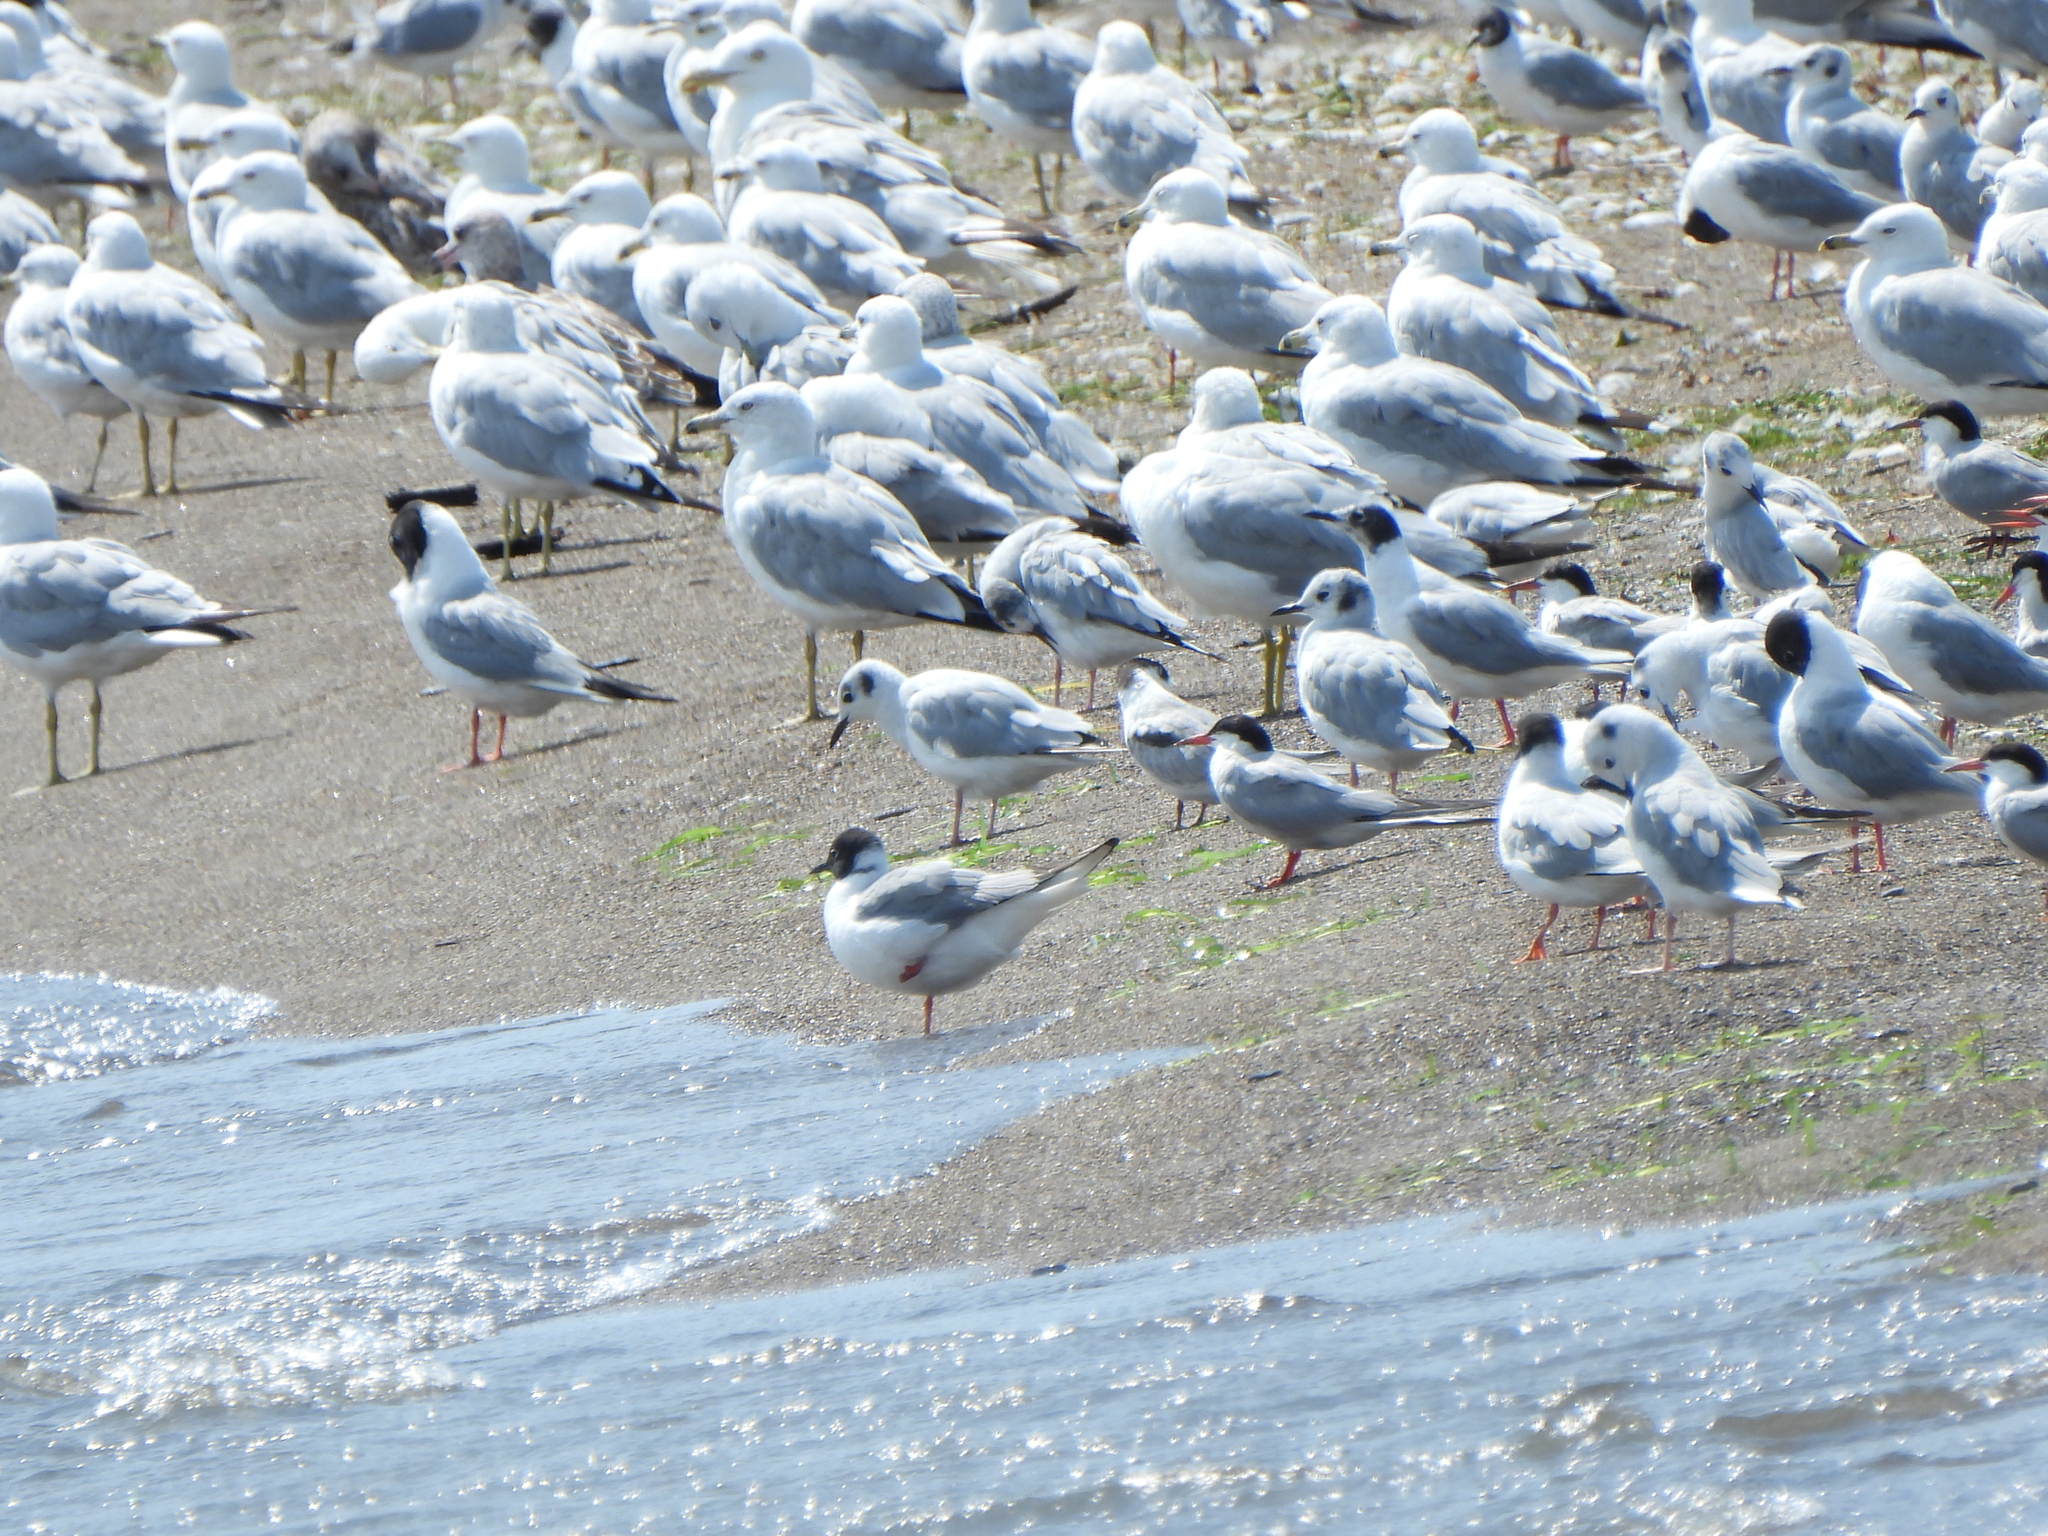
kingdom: Animalia
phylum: Chordata
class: Aves
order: Charadriiformes
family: Laridae
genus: Chroicocephalus
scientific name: Chroicocephalus philadelphia
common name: Bonaparte's gull
